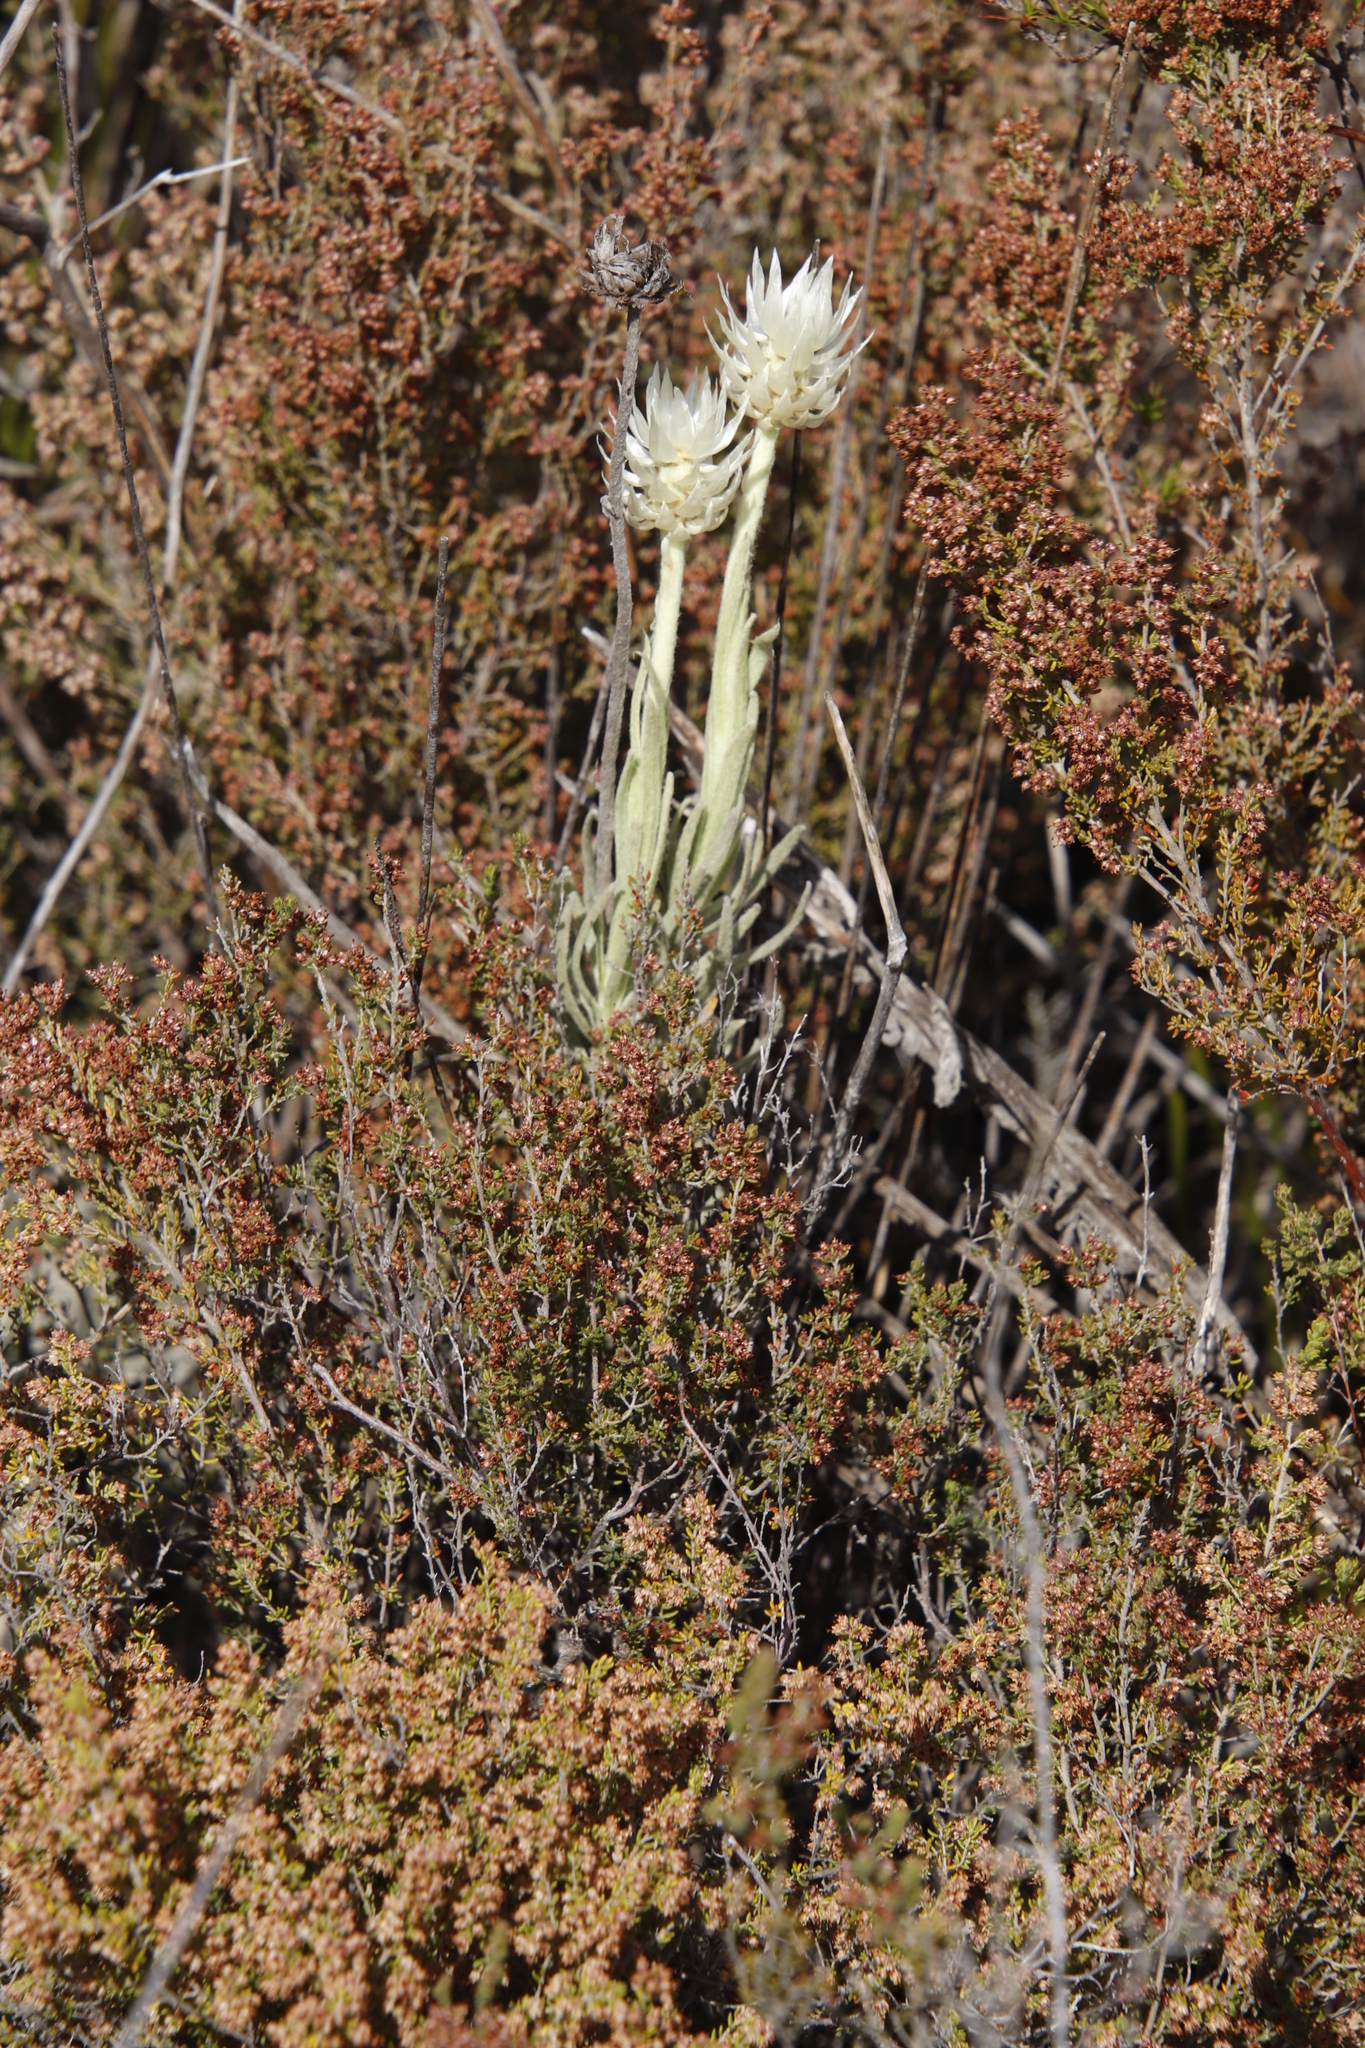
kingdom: Plantae
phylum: Tracheophyta
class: Magnoliopsida
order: Asterales
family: Asteraceae
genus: Syncarpha
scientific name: Syncarpha vestita
